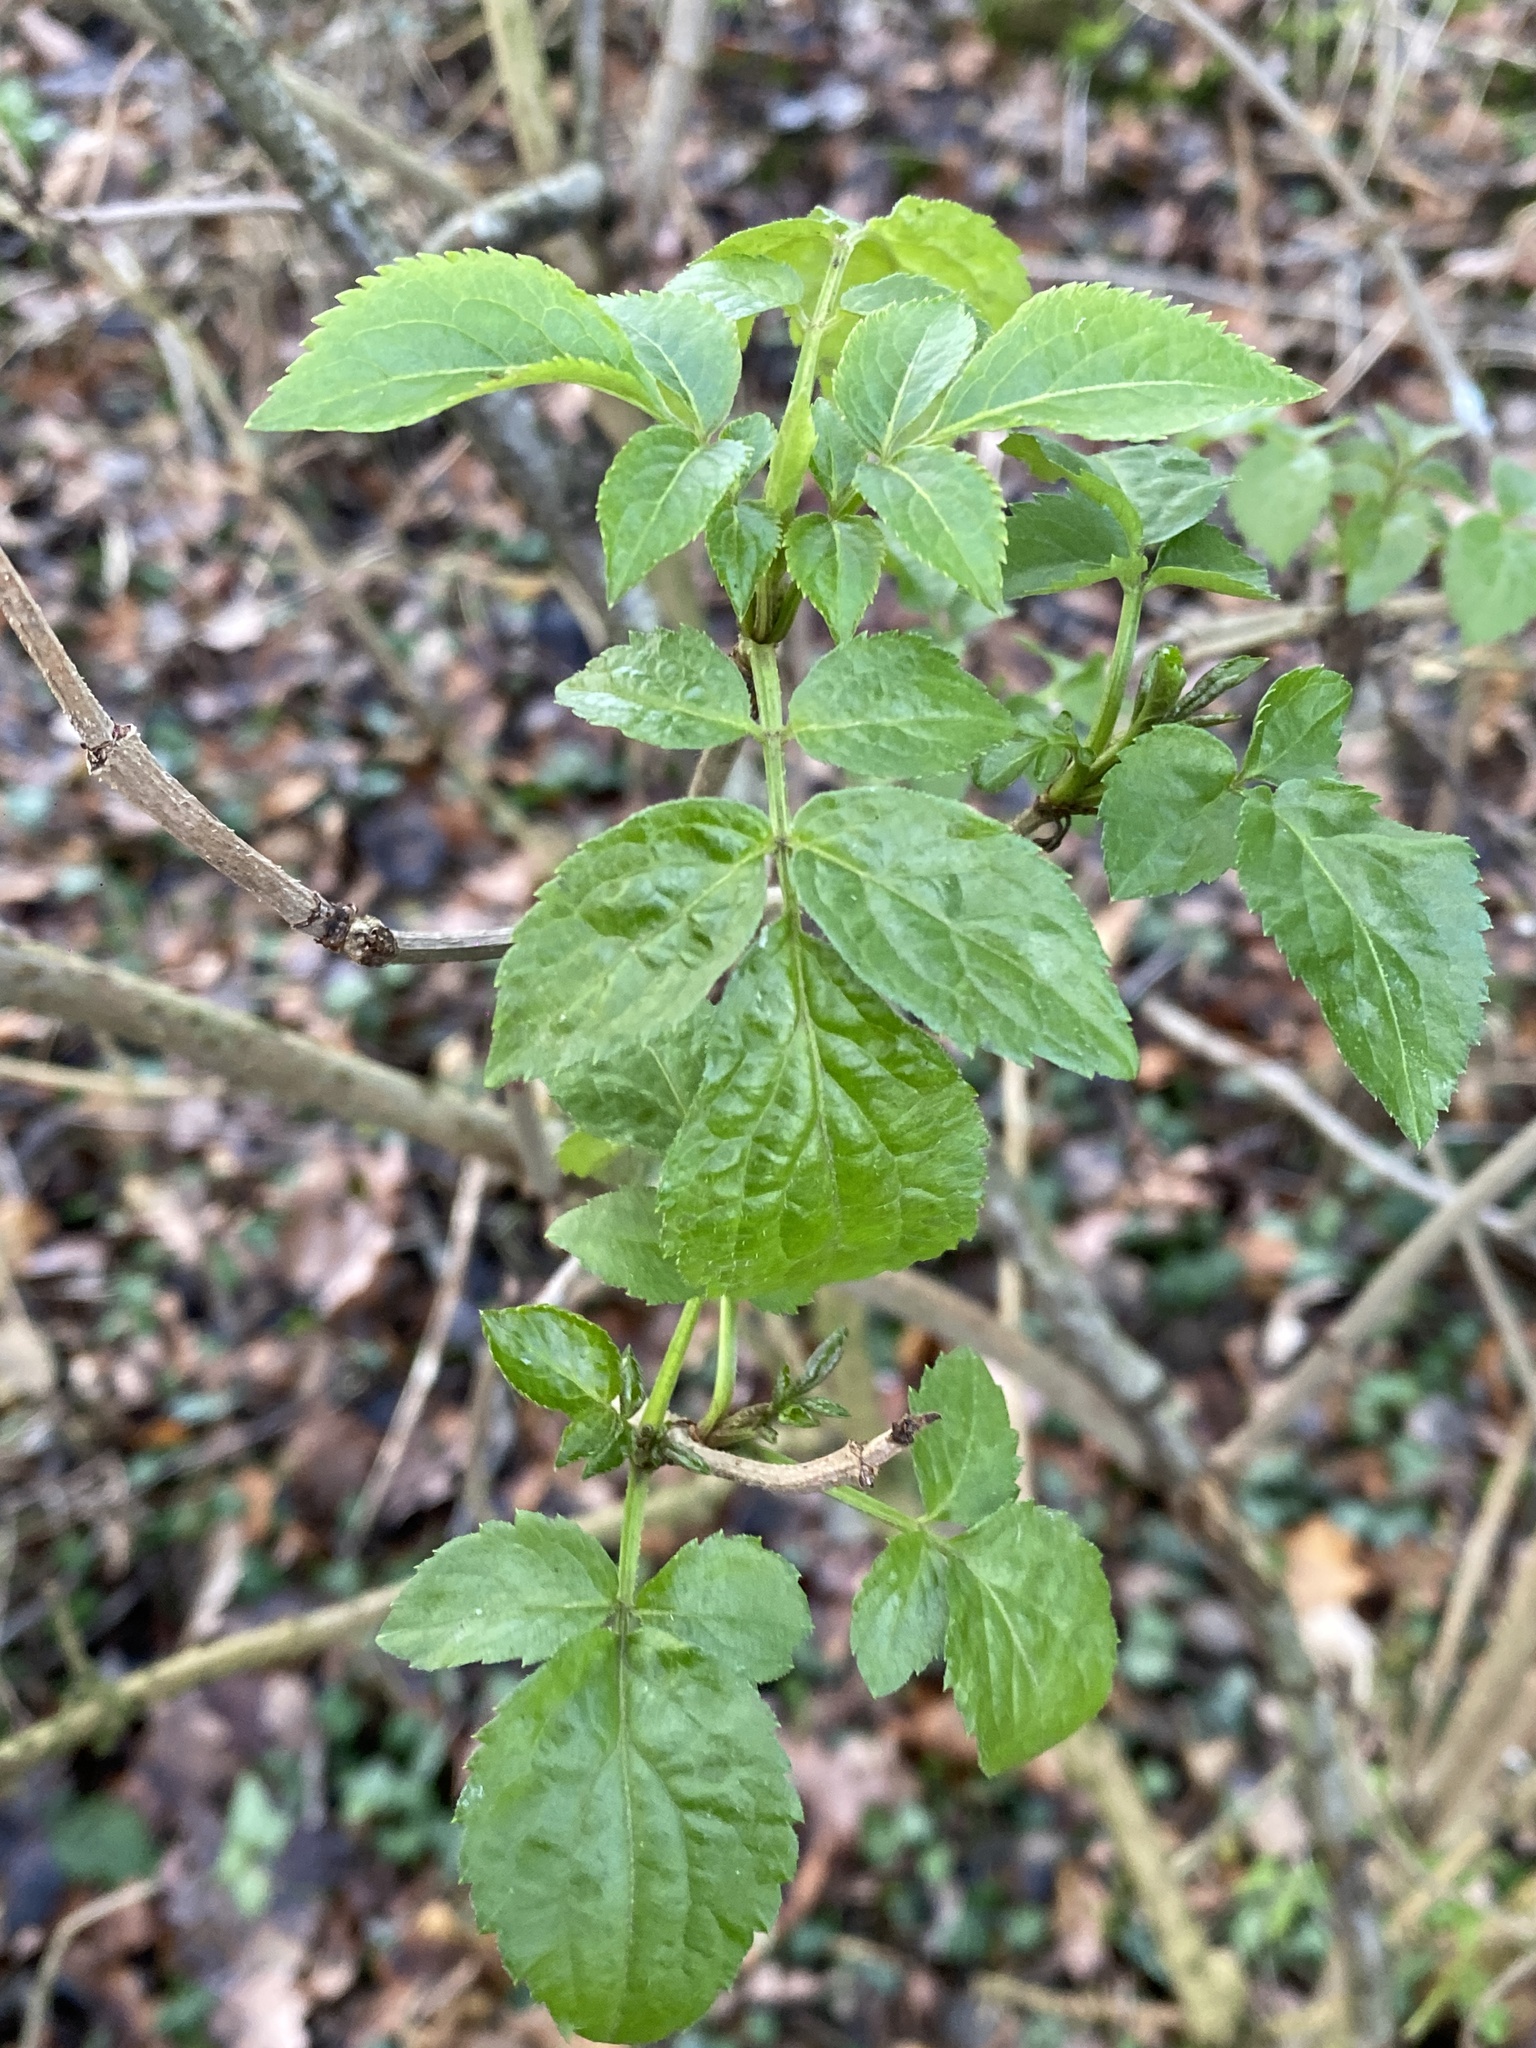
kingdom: Plantae
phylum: Tracheophyta
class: Magnoliopsida
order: Dipsacales
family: Viburnaceae
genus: Sambucus
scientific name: Sambucus nigra
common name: Elder
